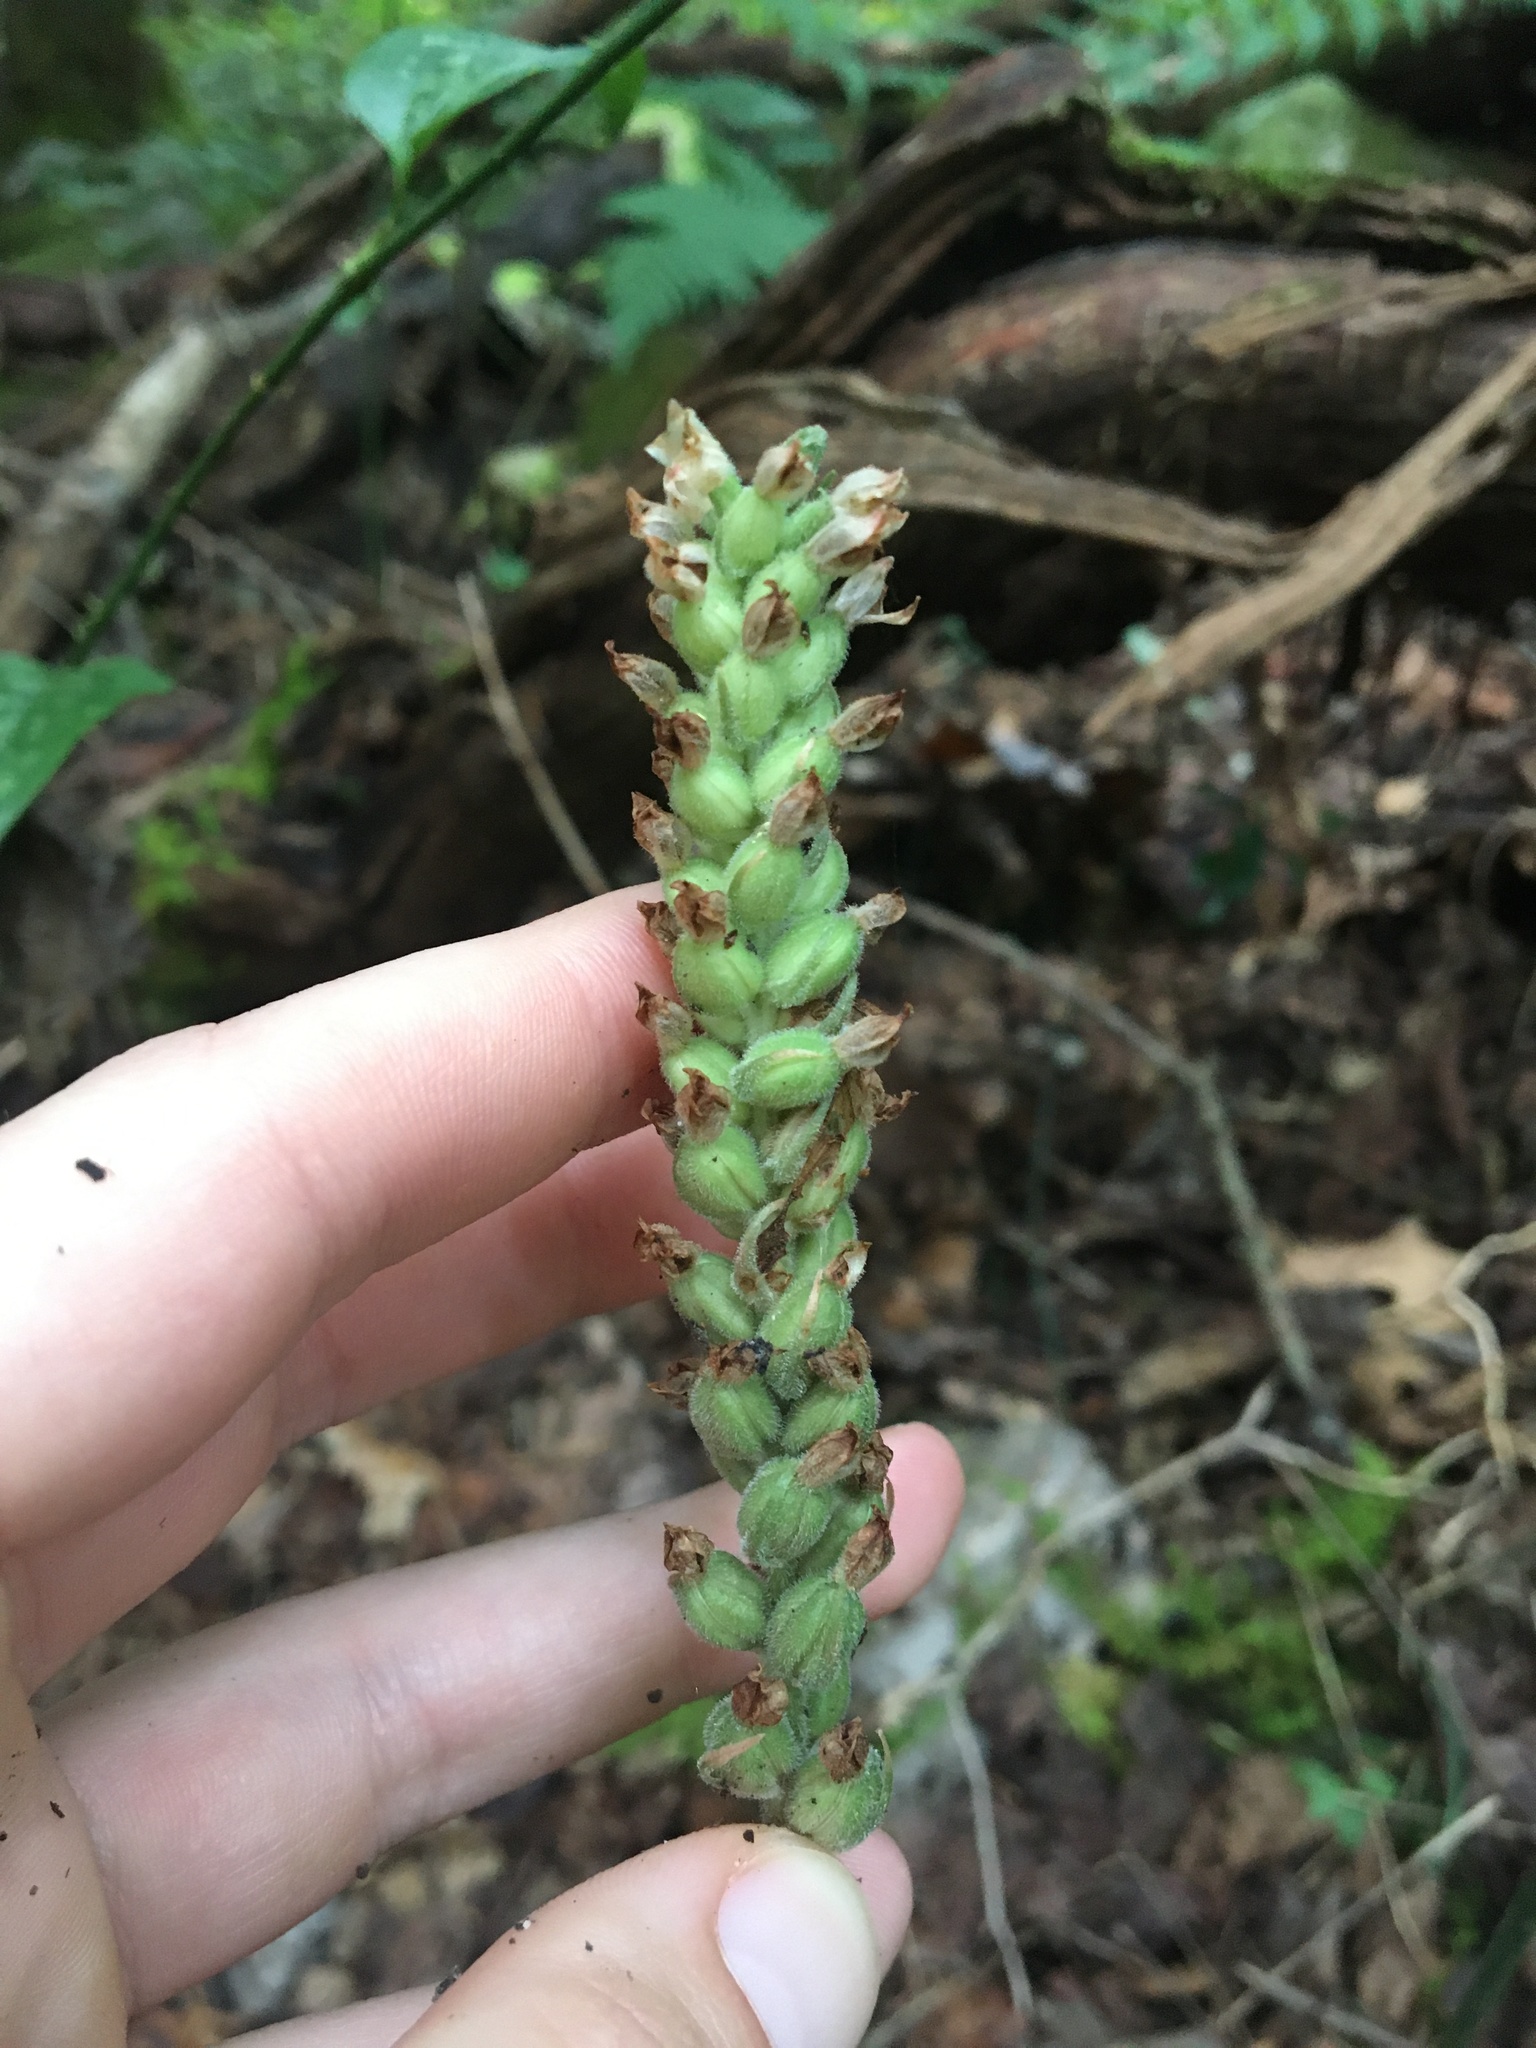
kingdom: Plantae
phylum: Tracheophyta
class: Liliopsida
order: Asparagales
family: Orchidaceae
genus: Goodyera
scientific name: Goodyera pubescens
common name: Downy rattlesnake-plantain
